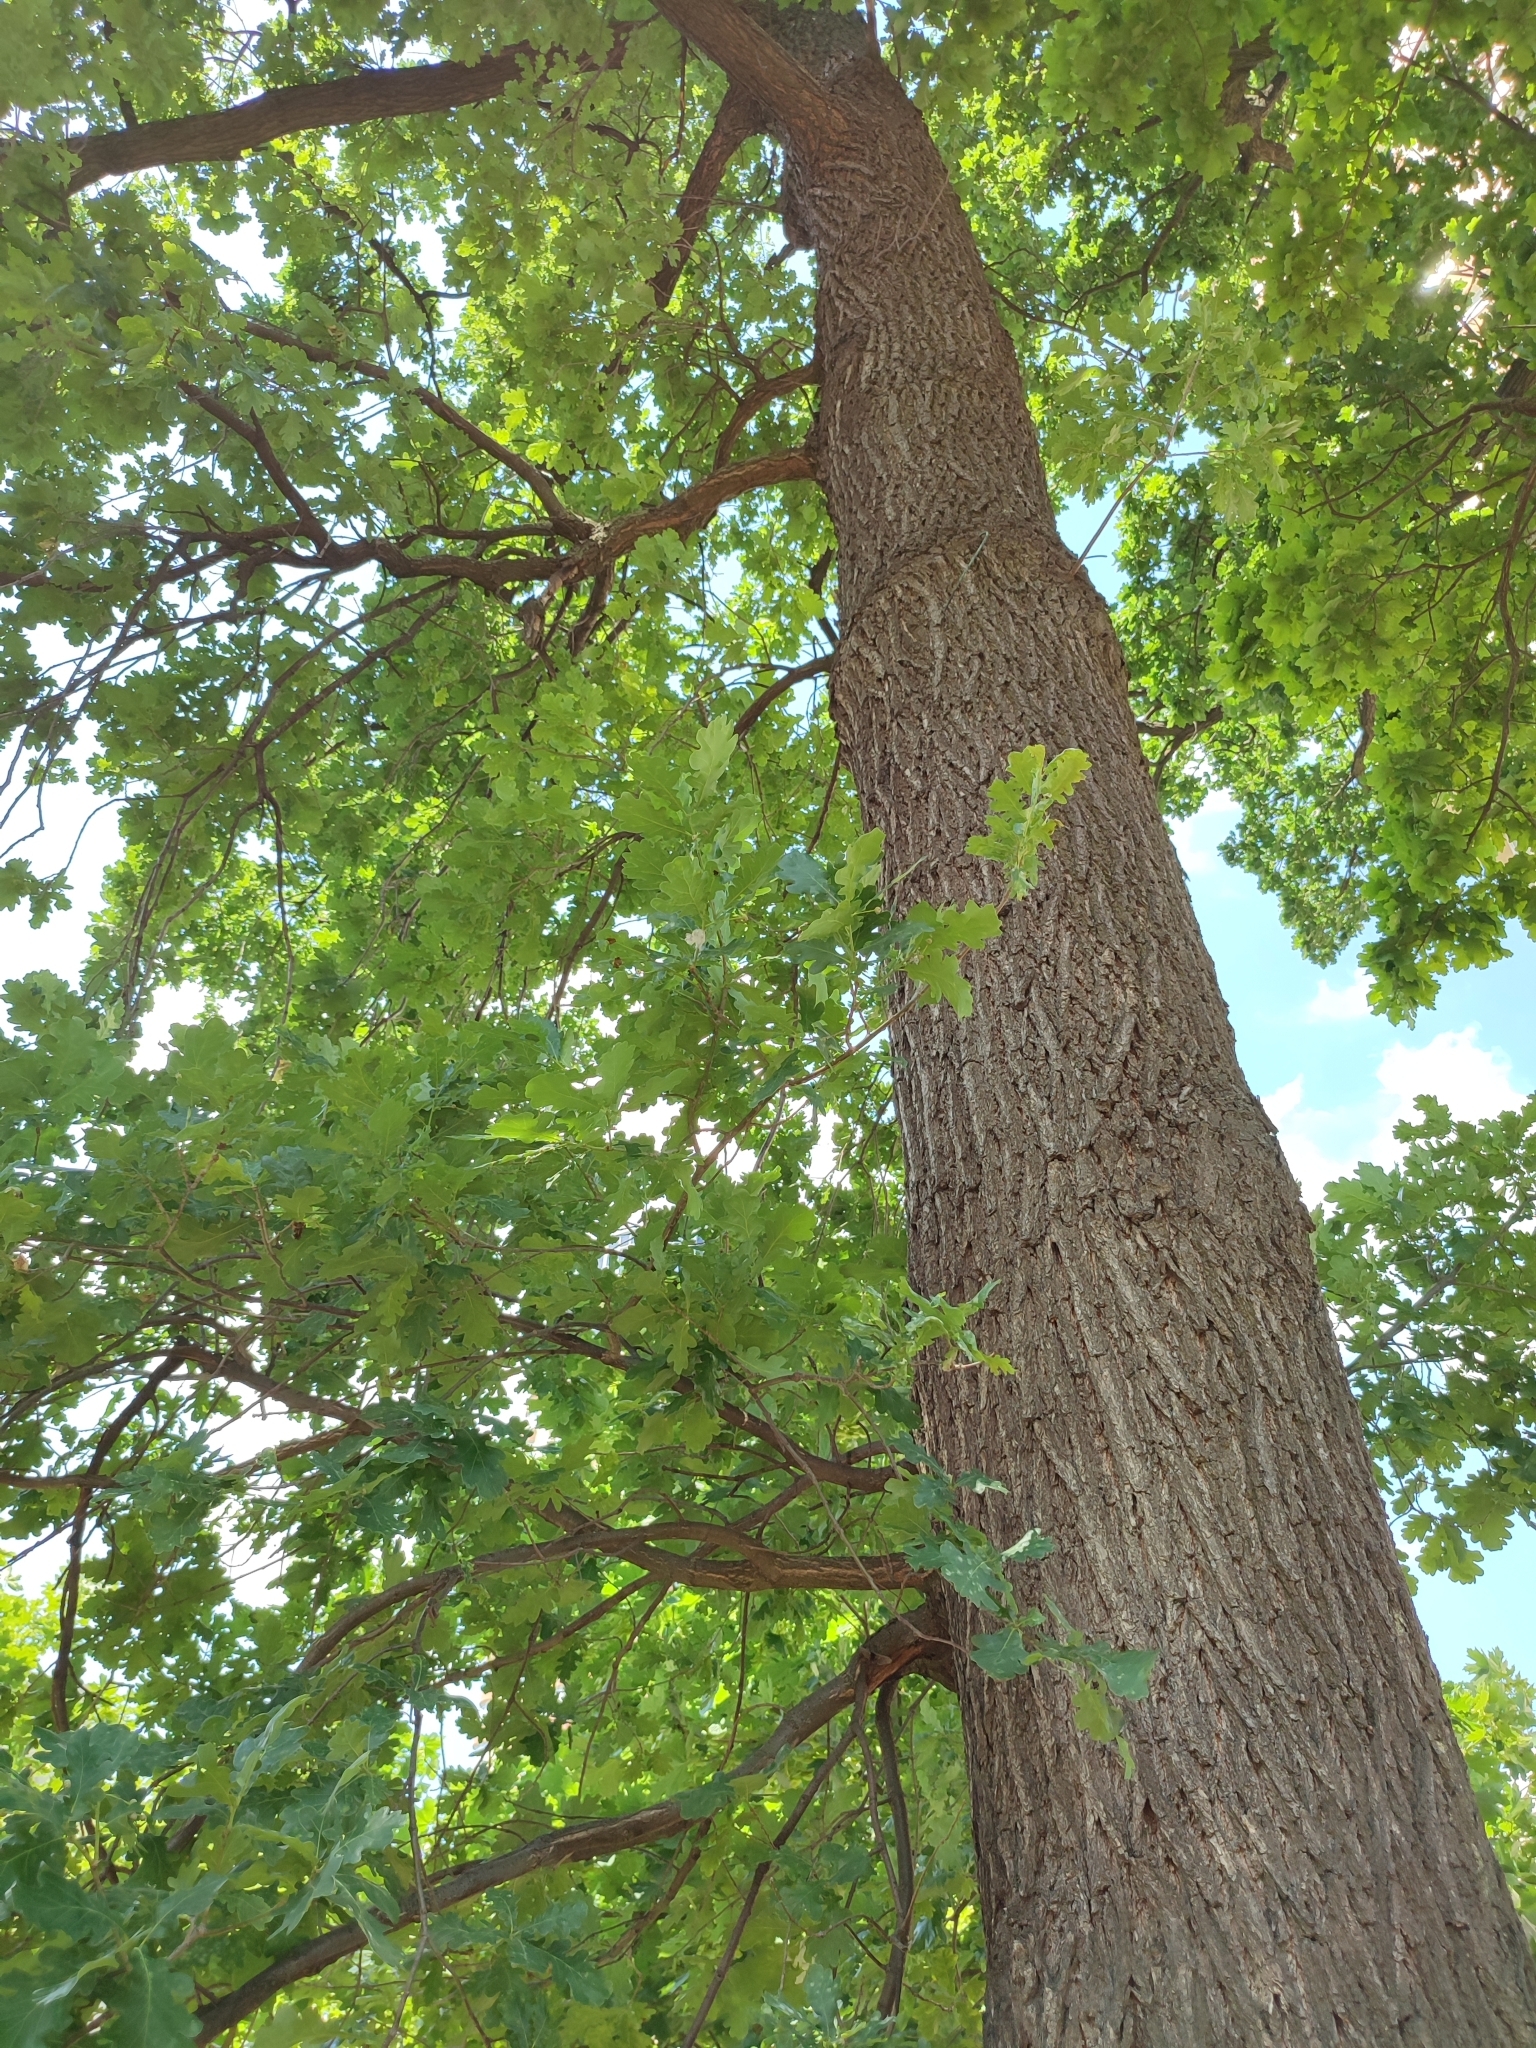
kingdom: Plantae
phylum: Tracheophyta
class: Magnoliopsida
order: Fagales
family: Fagaceae
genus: Quercus
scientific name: Quercus robur
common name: Pedunculate oak
